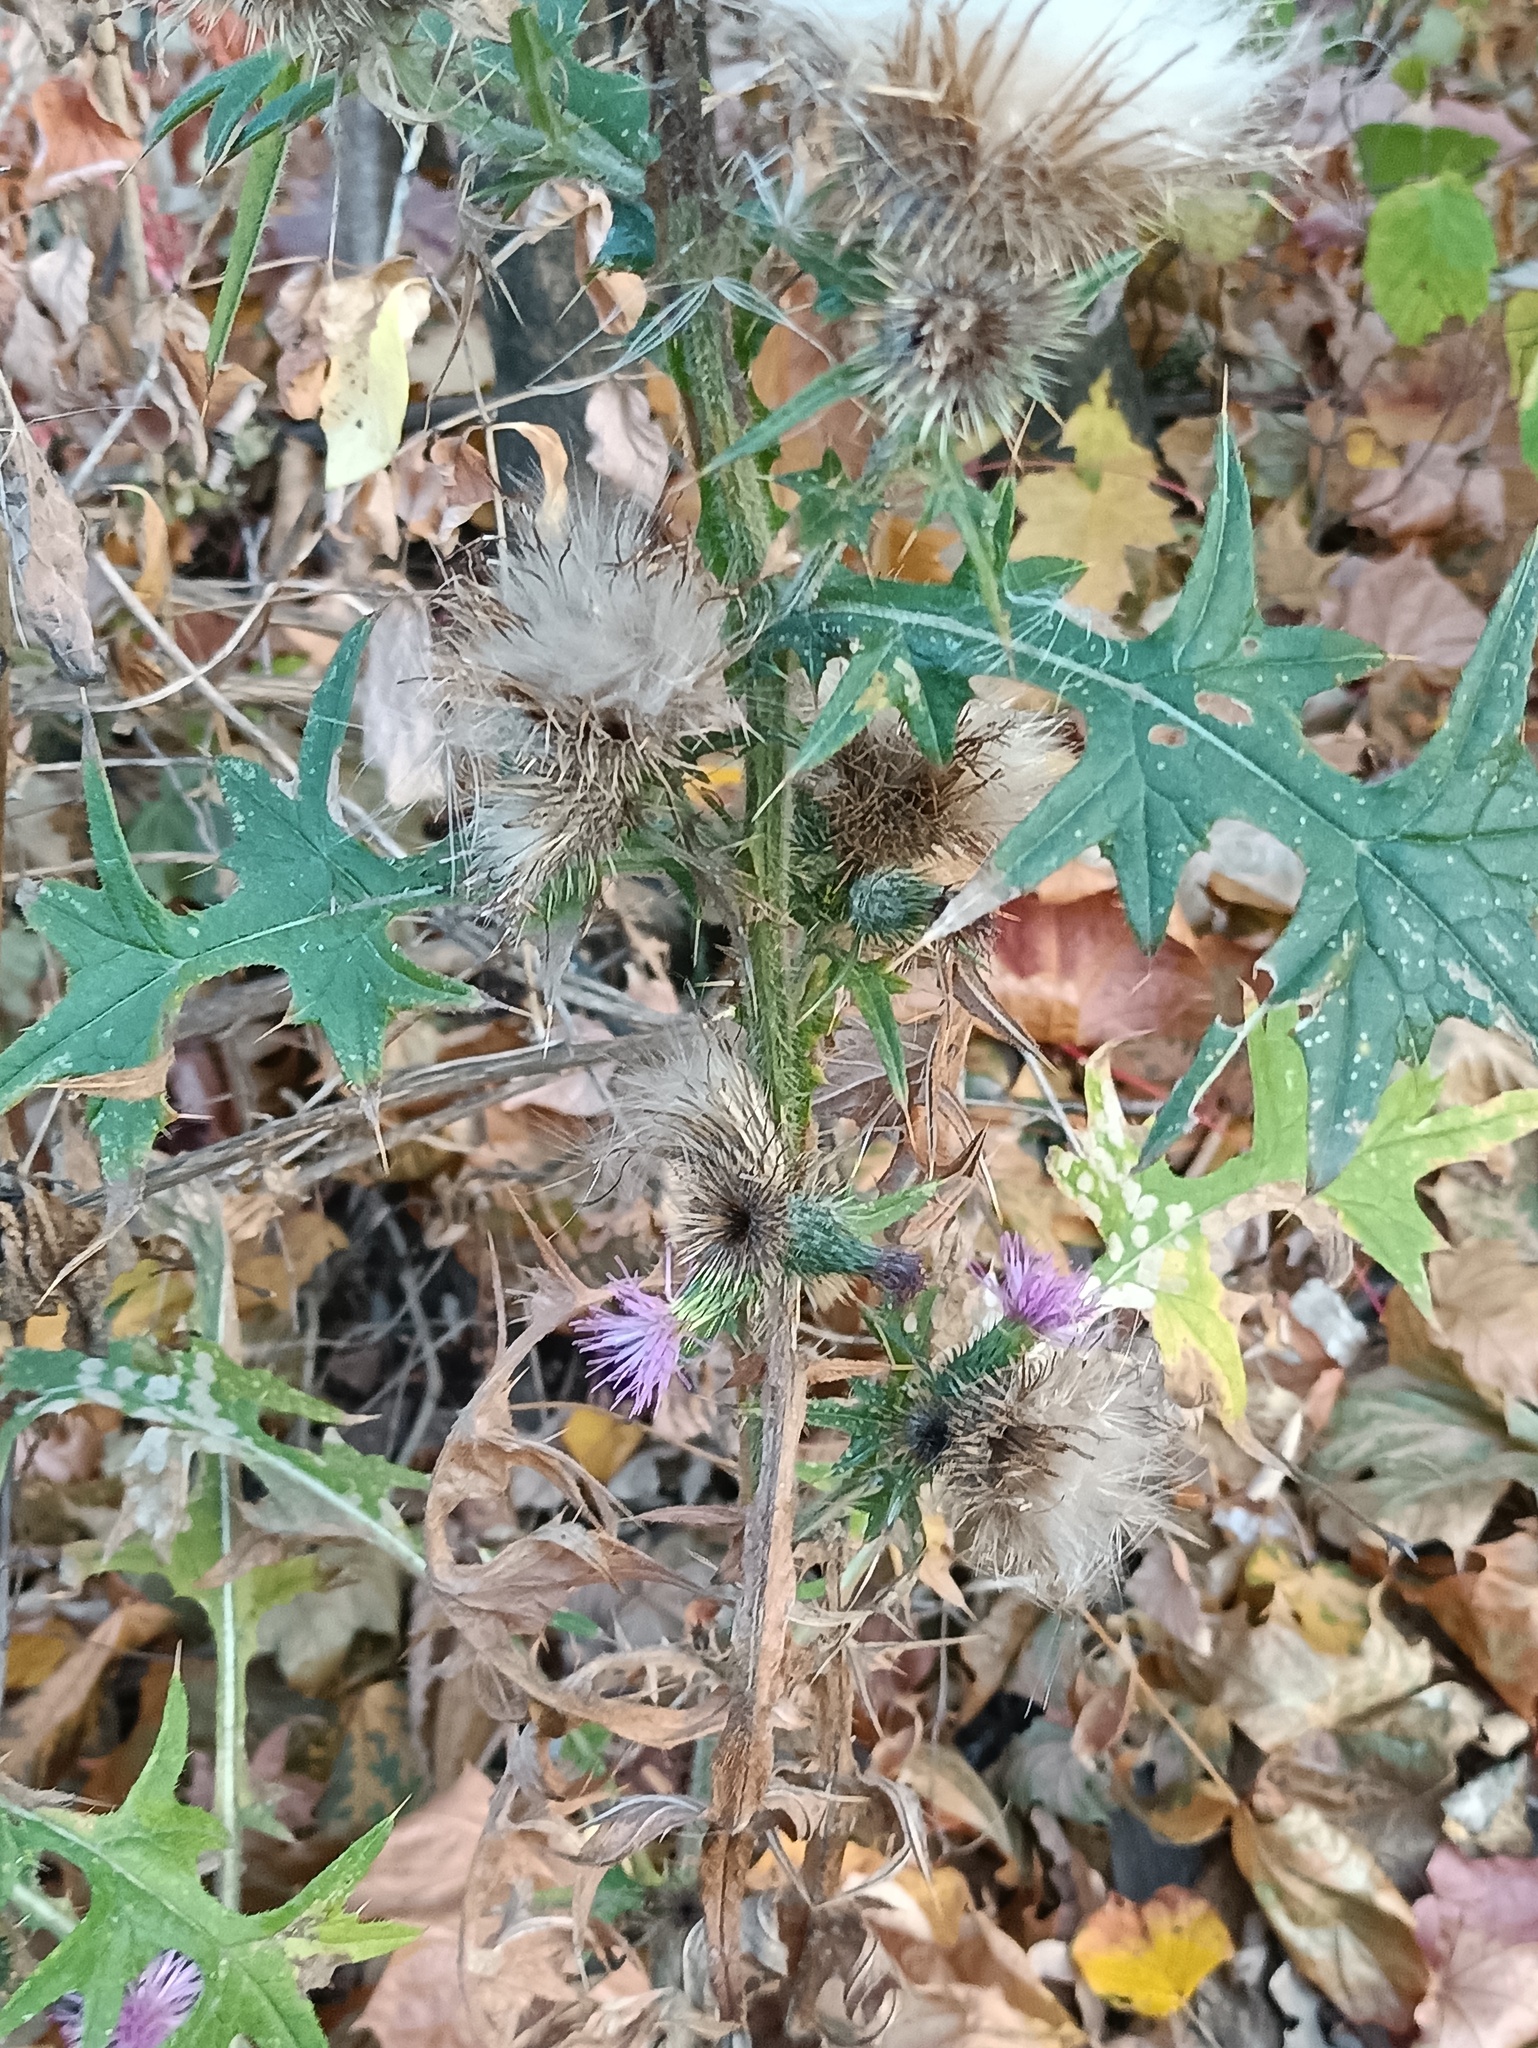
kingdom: Plantae
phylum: Tracheophyta
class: Magnoliopsida
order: Asterales
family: Asteraceae
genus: Cirsium
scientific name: Cirsium vulgare
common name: Bull thistle
